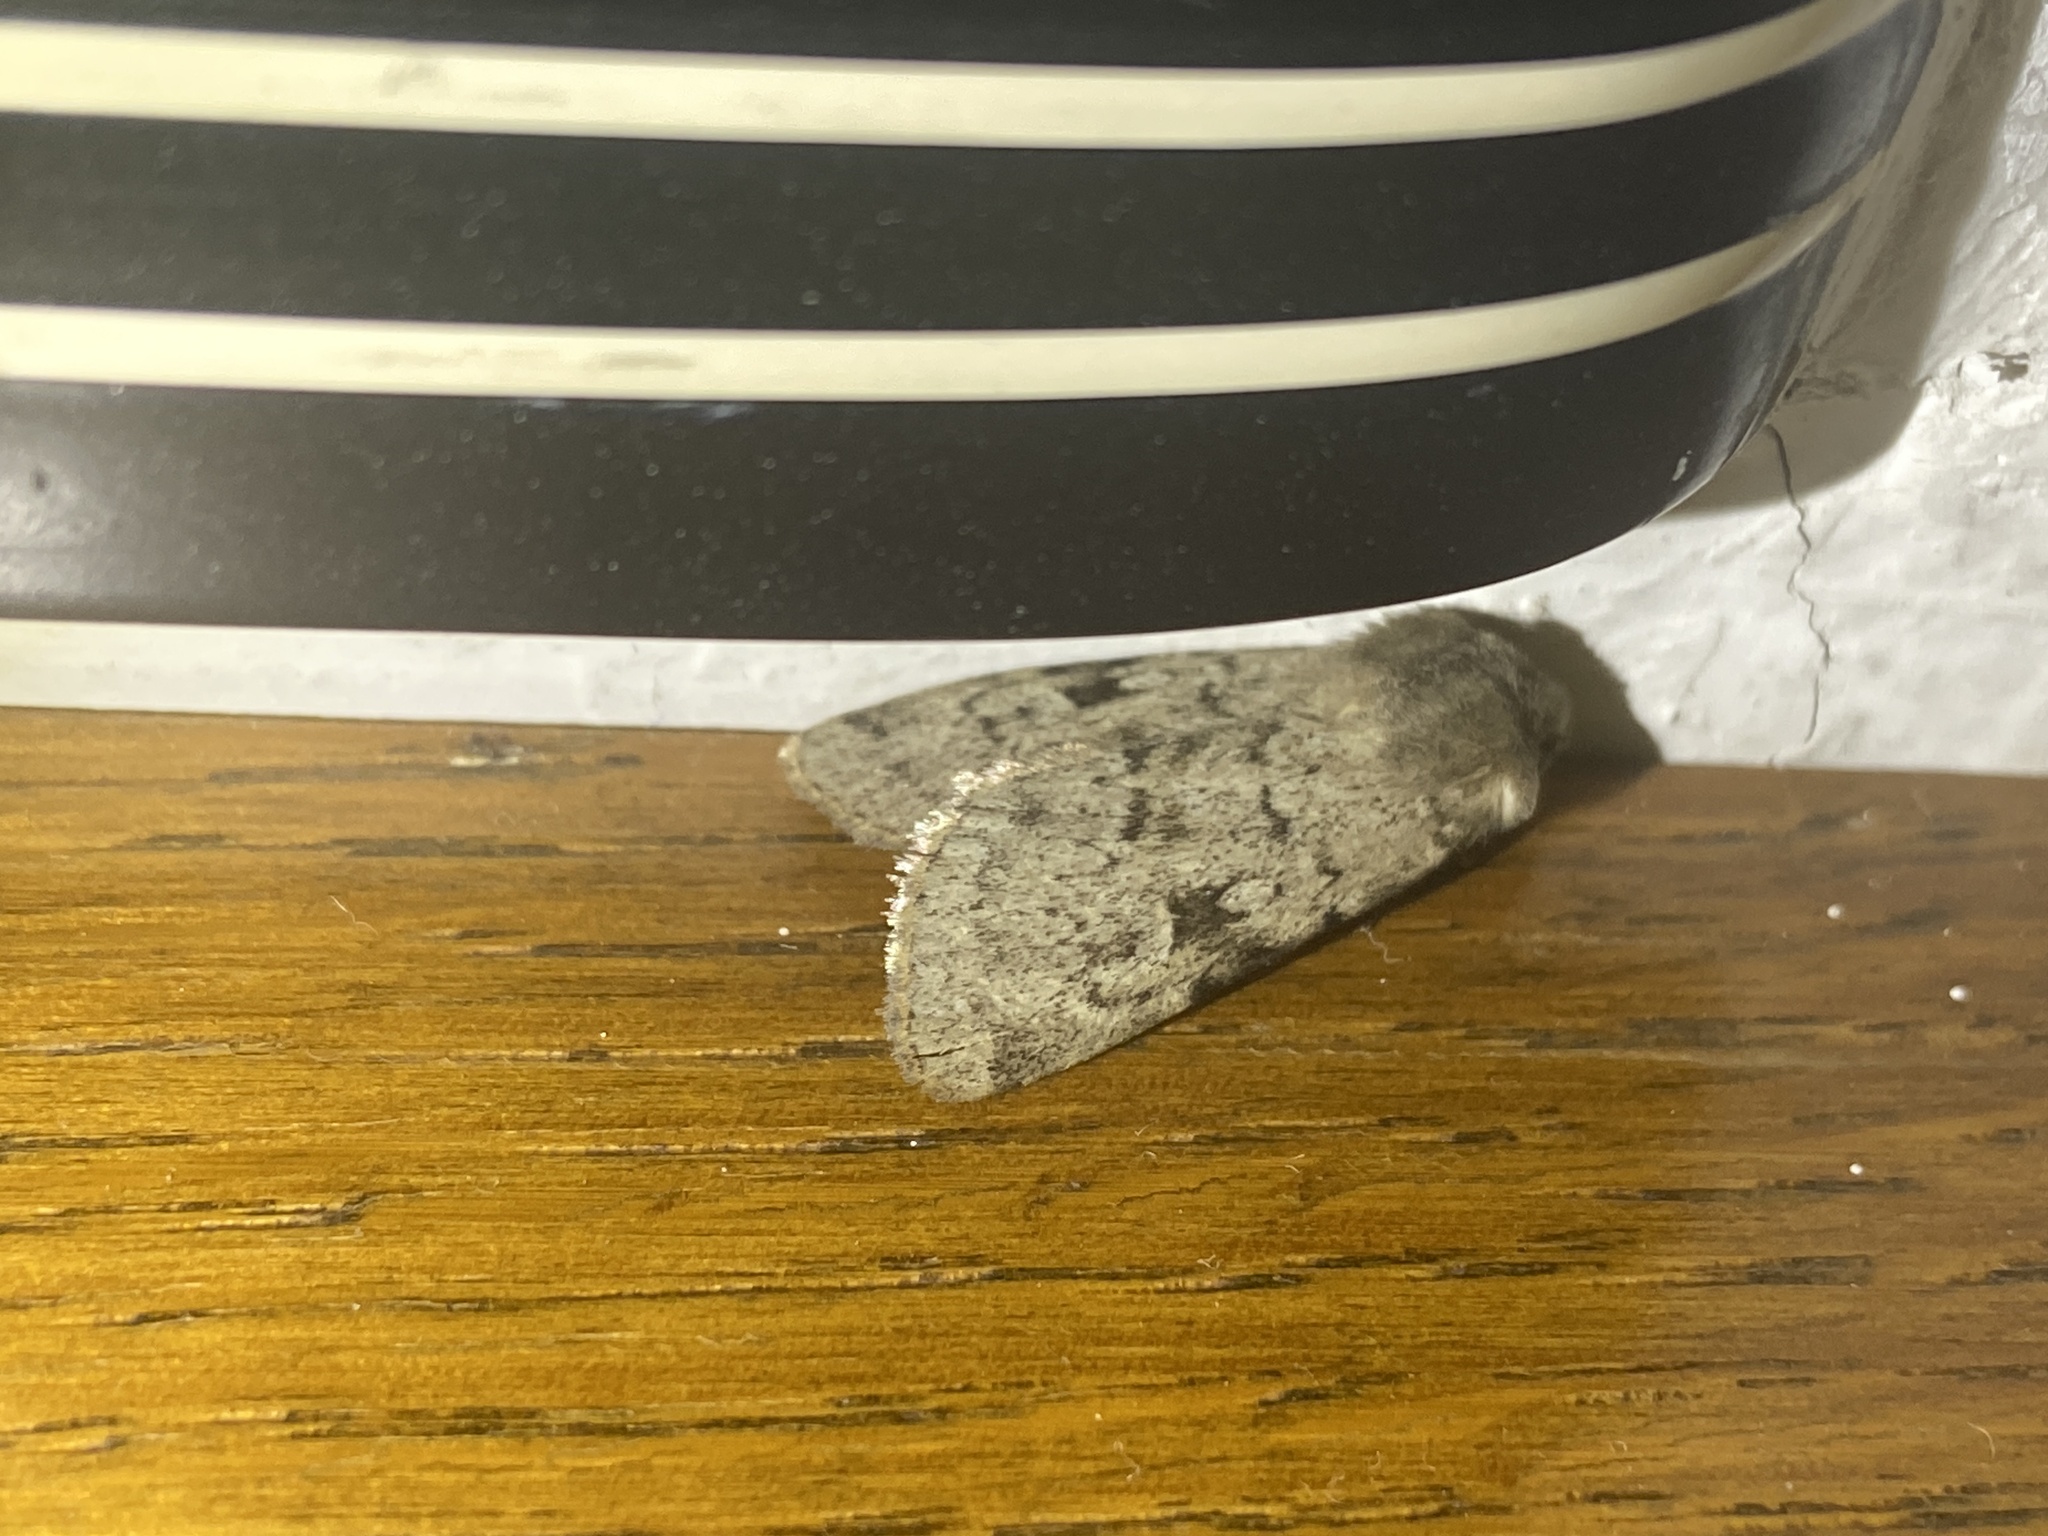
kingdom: Animalia
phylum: Arthropoda
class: Insecta
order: Lepidoptera
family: Noctuidae
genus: Epipsilia
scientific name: Epipsilia latens
